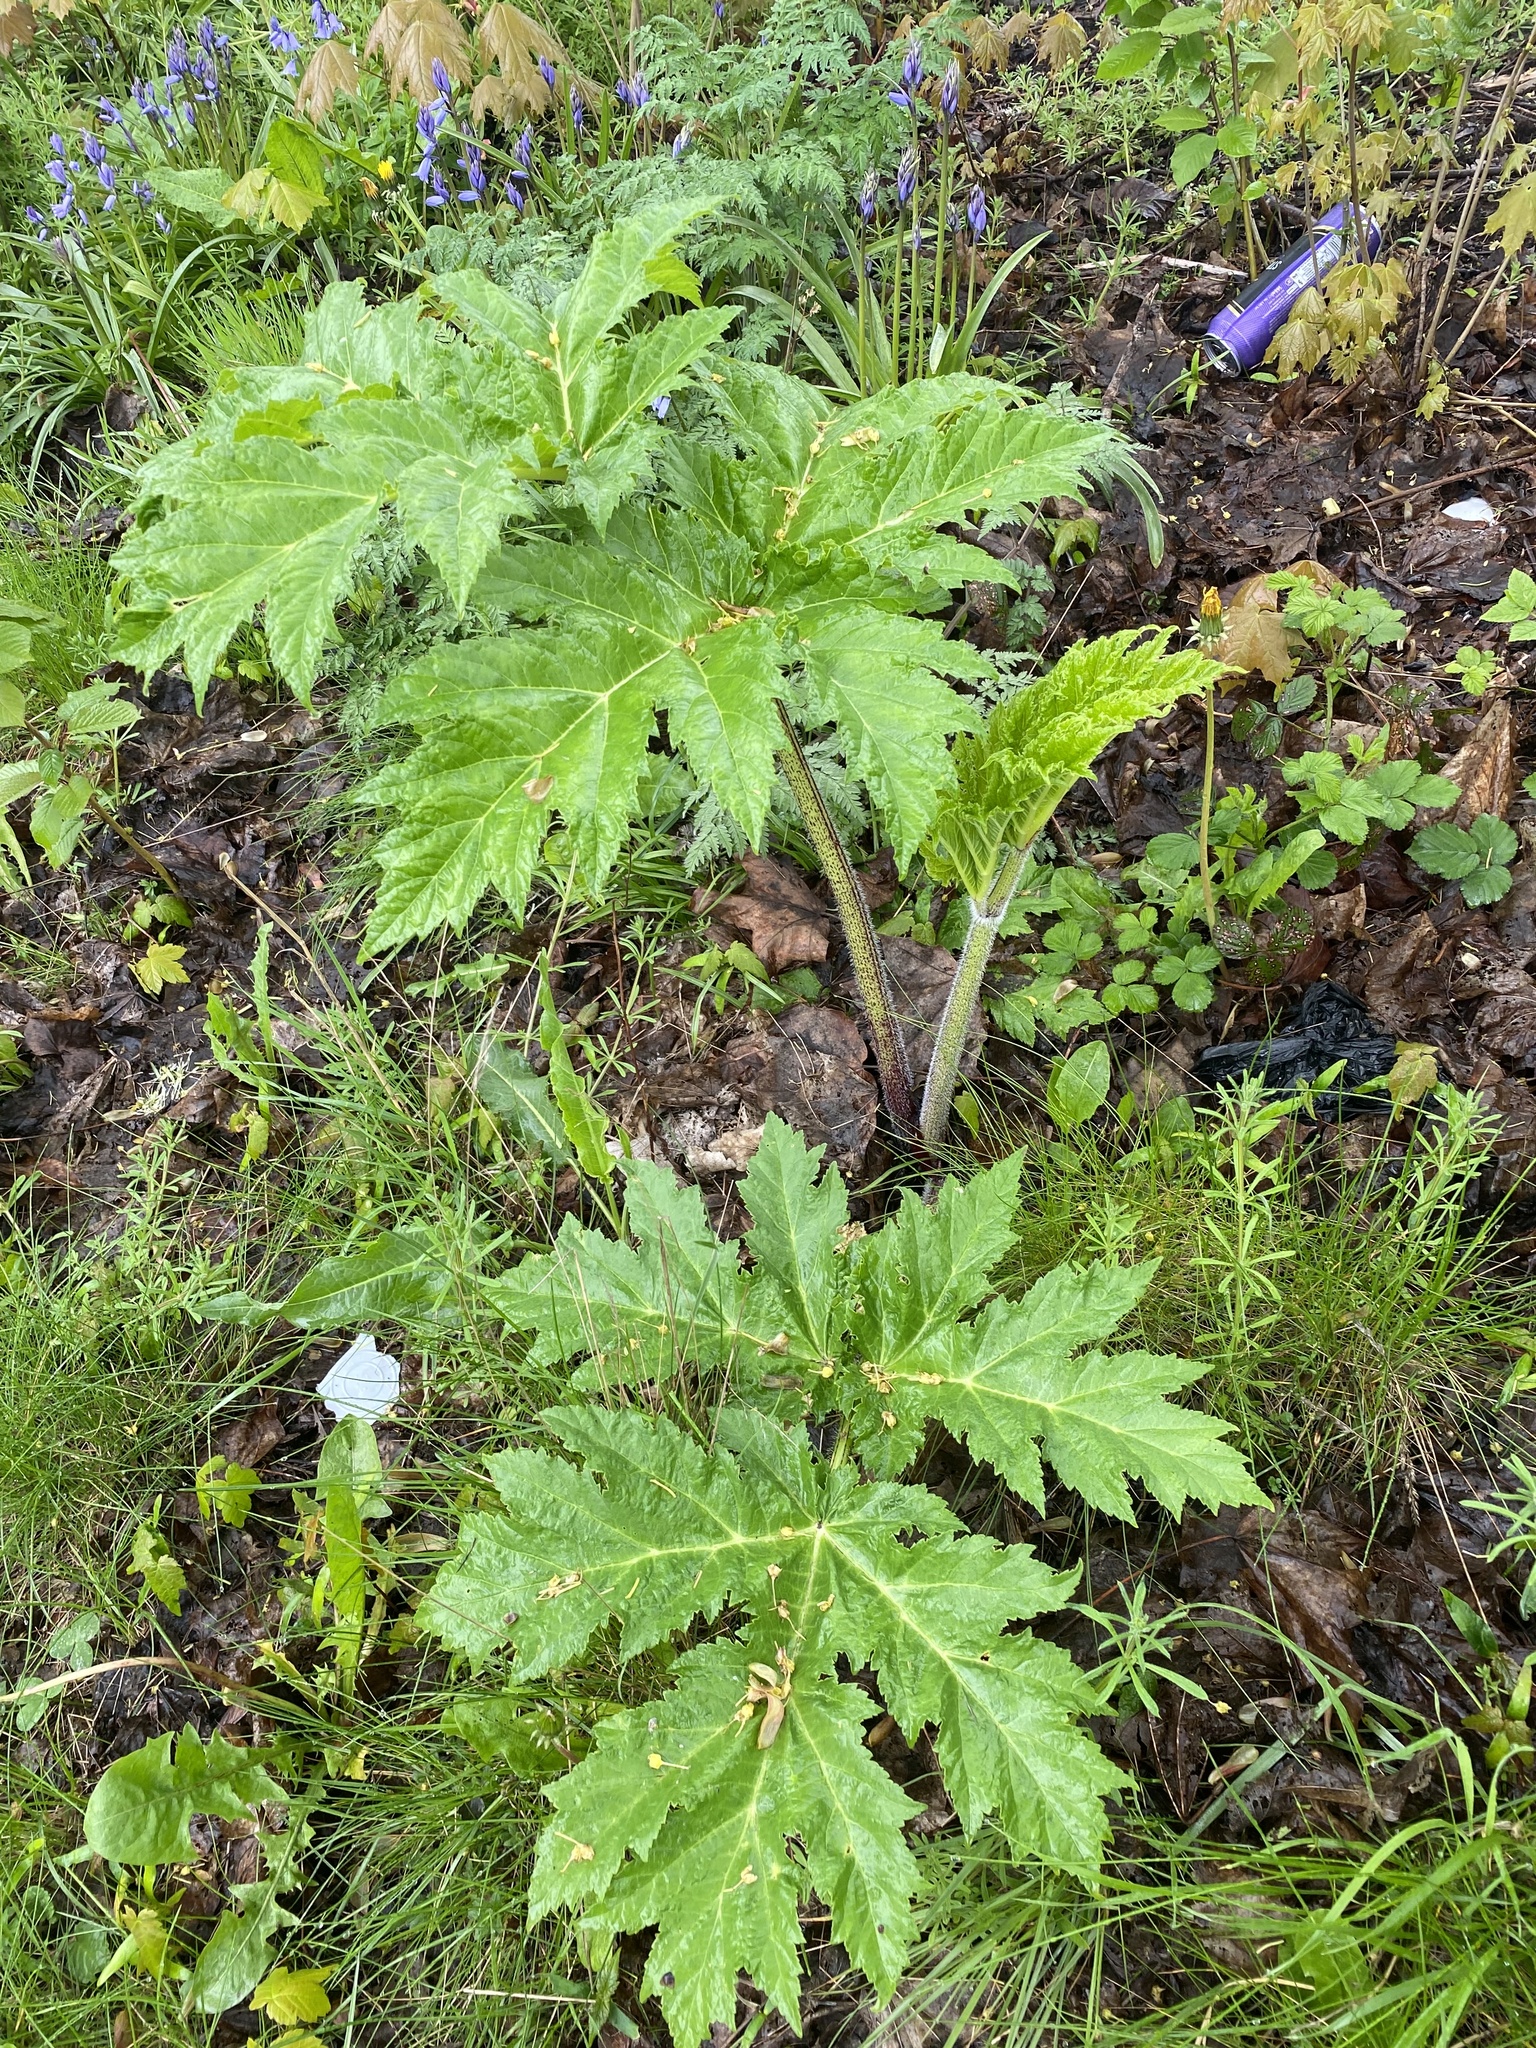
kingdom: Plantae
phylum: Tracheophyta
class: Magnoliopsida
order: Apiales
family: Apiaceae
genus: Heracleum
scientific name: Heracleum mantegazzianum
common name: Giant hogweed
